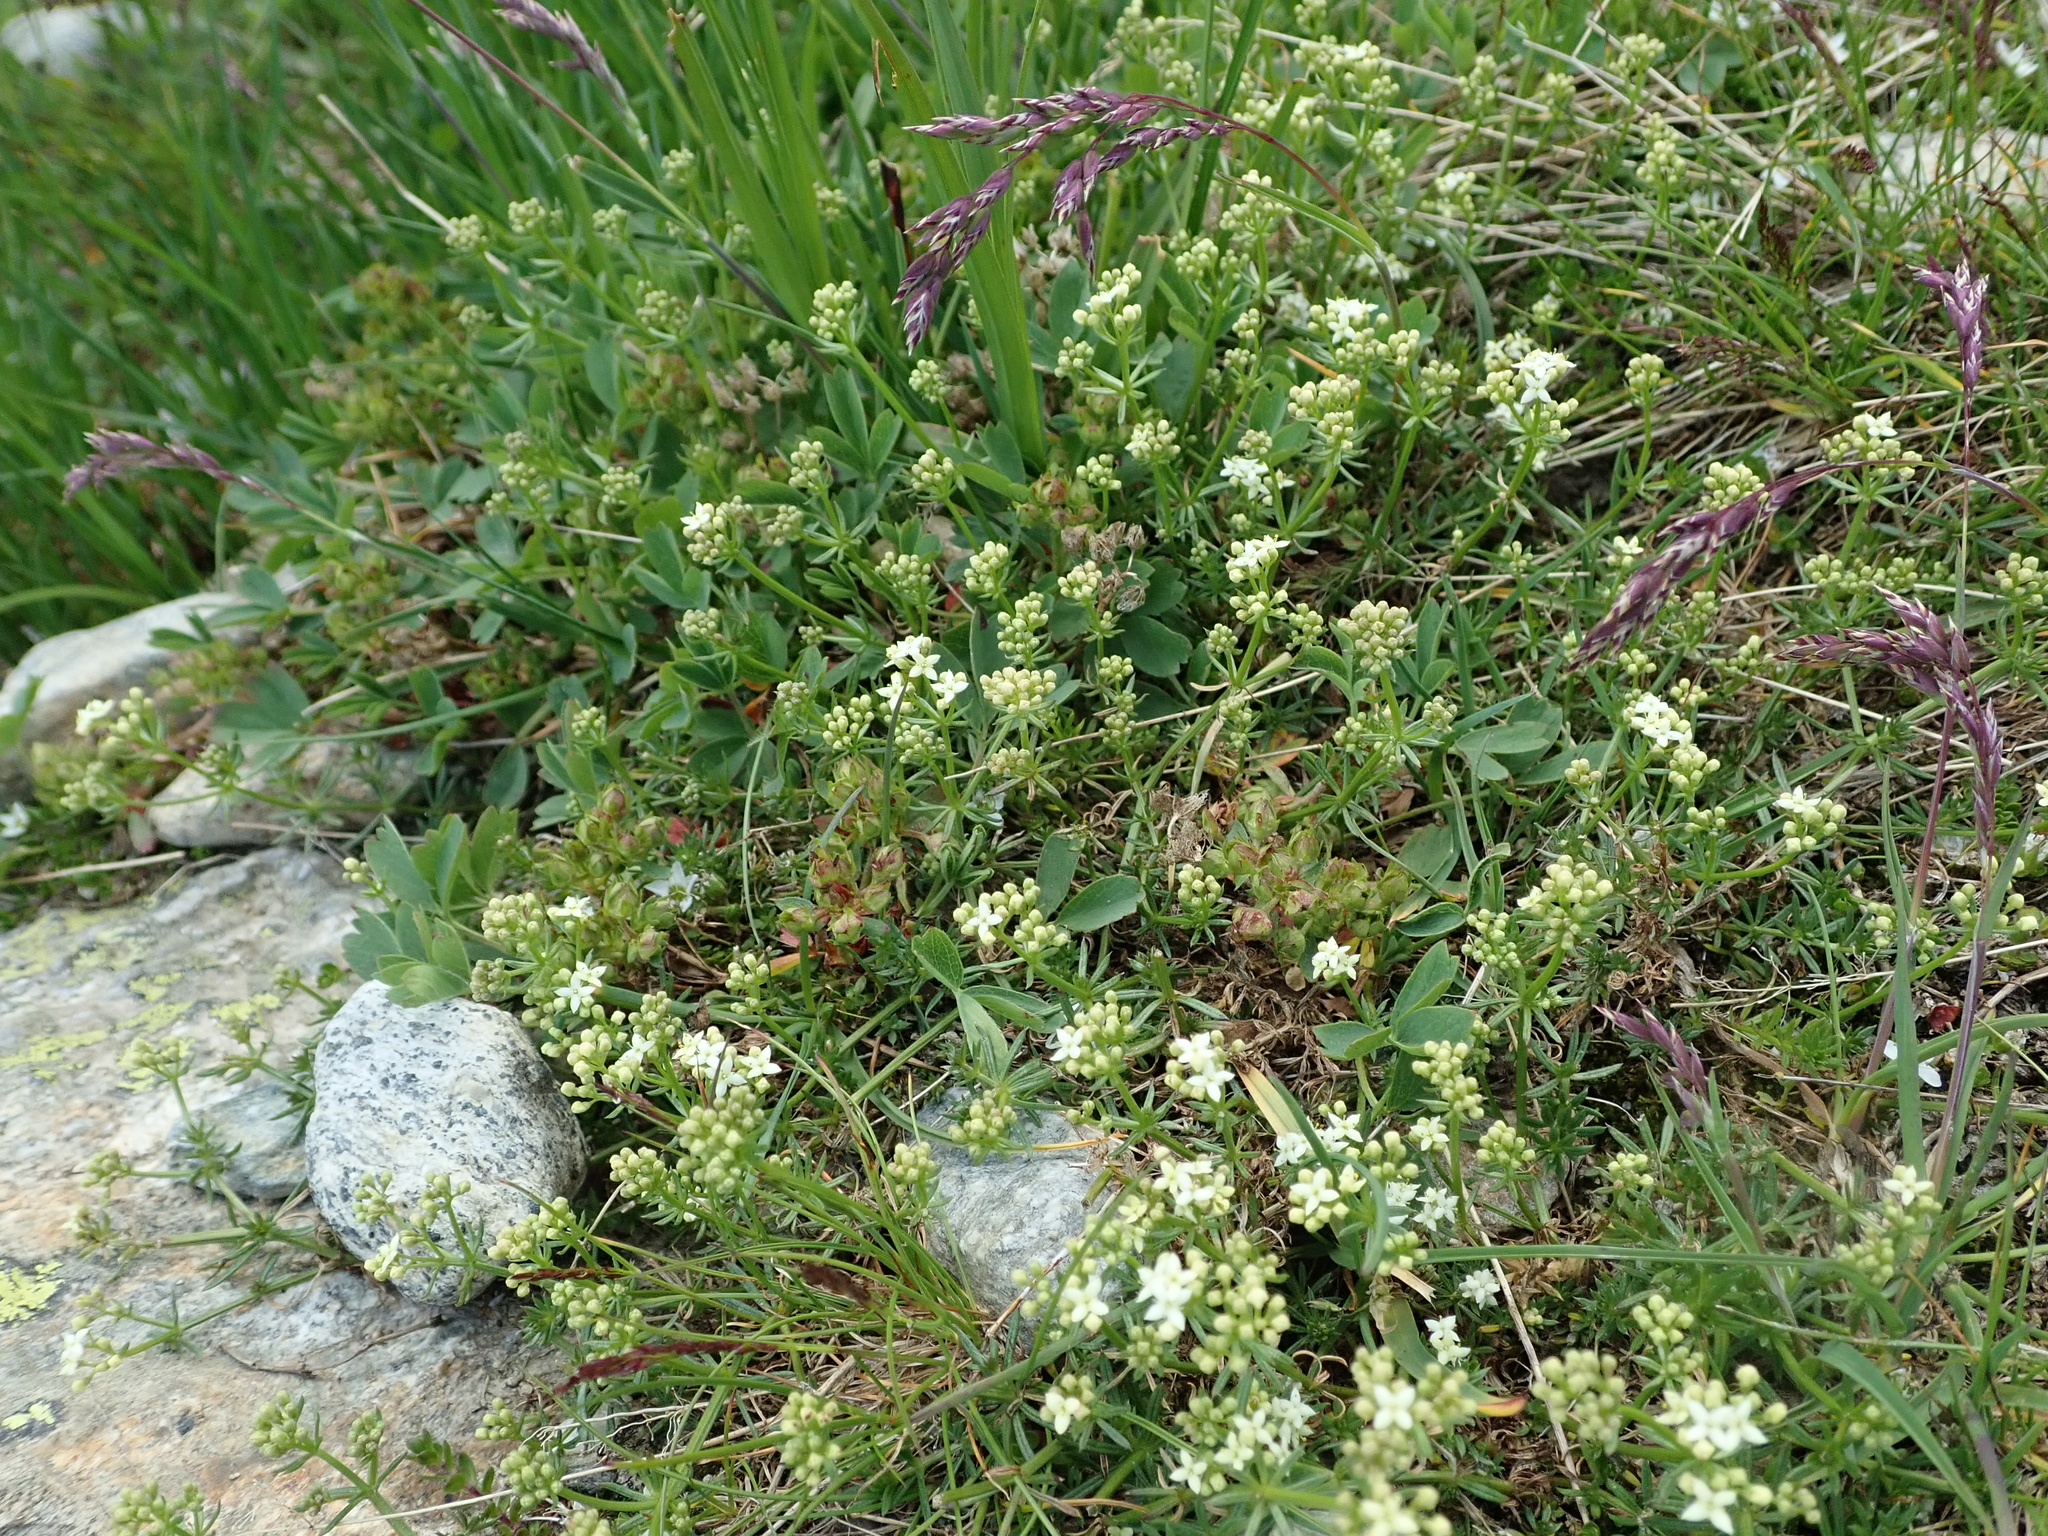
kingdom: Plantae
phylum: Tracheophyta
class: Magnoliopsida
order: Gentianales
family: Rubiaceae
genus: Galium
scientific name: Galium anisophyllon
